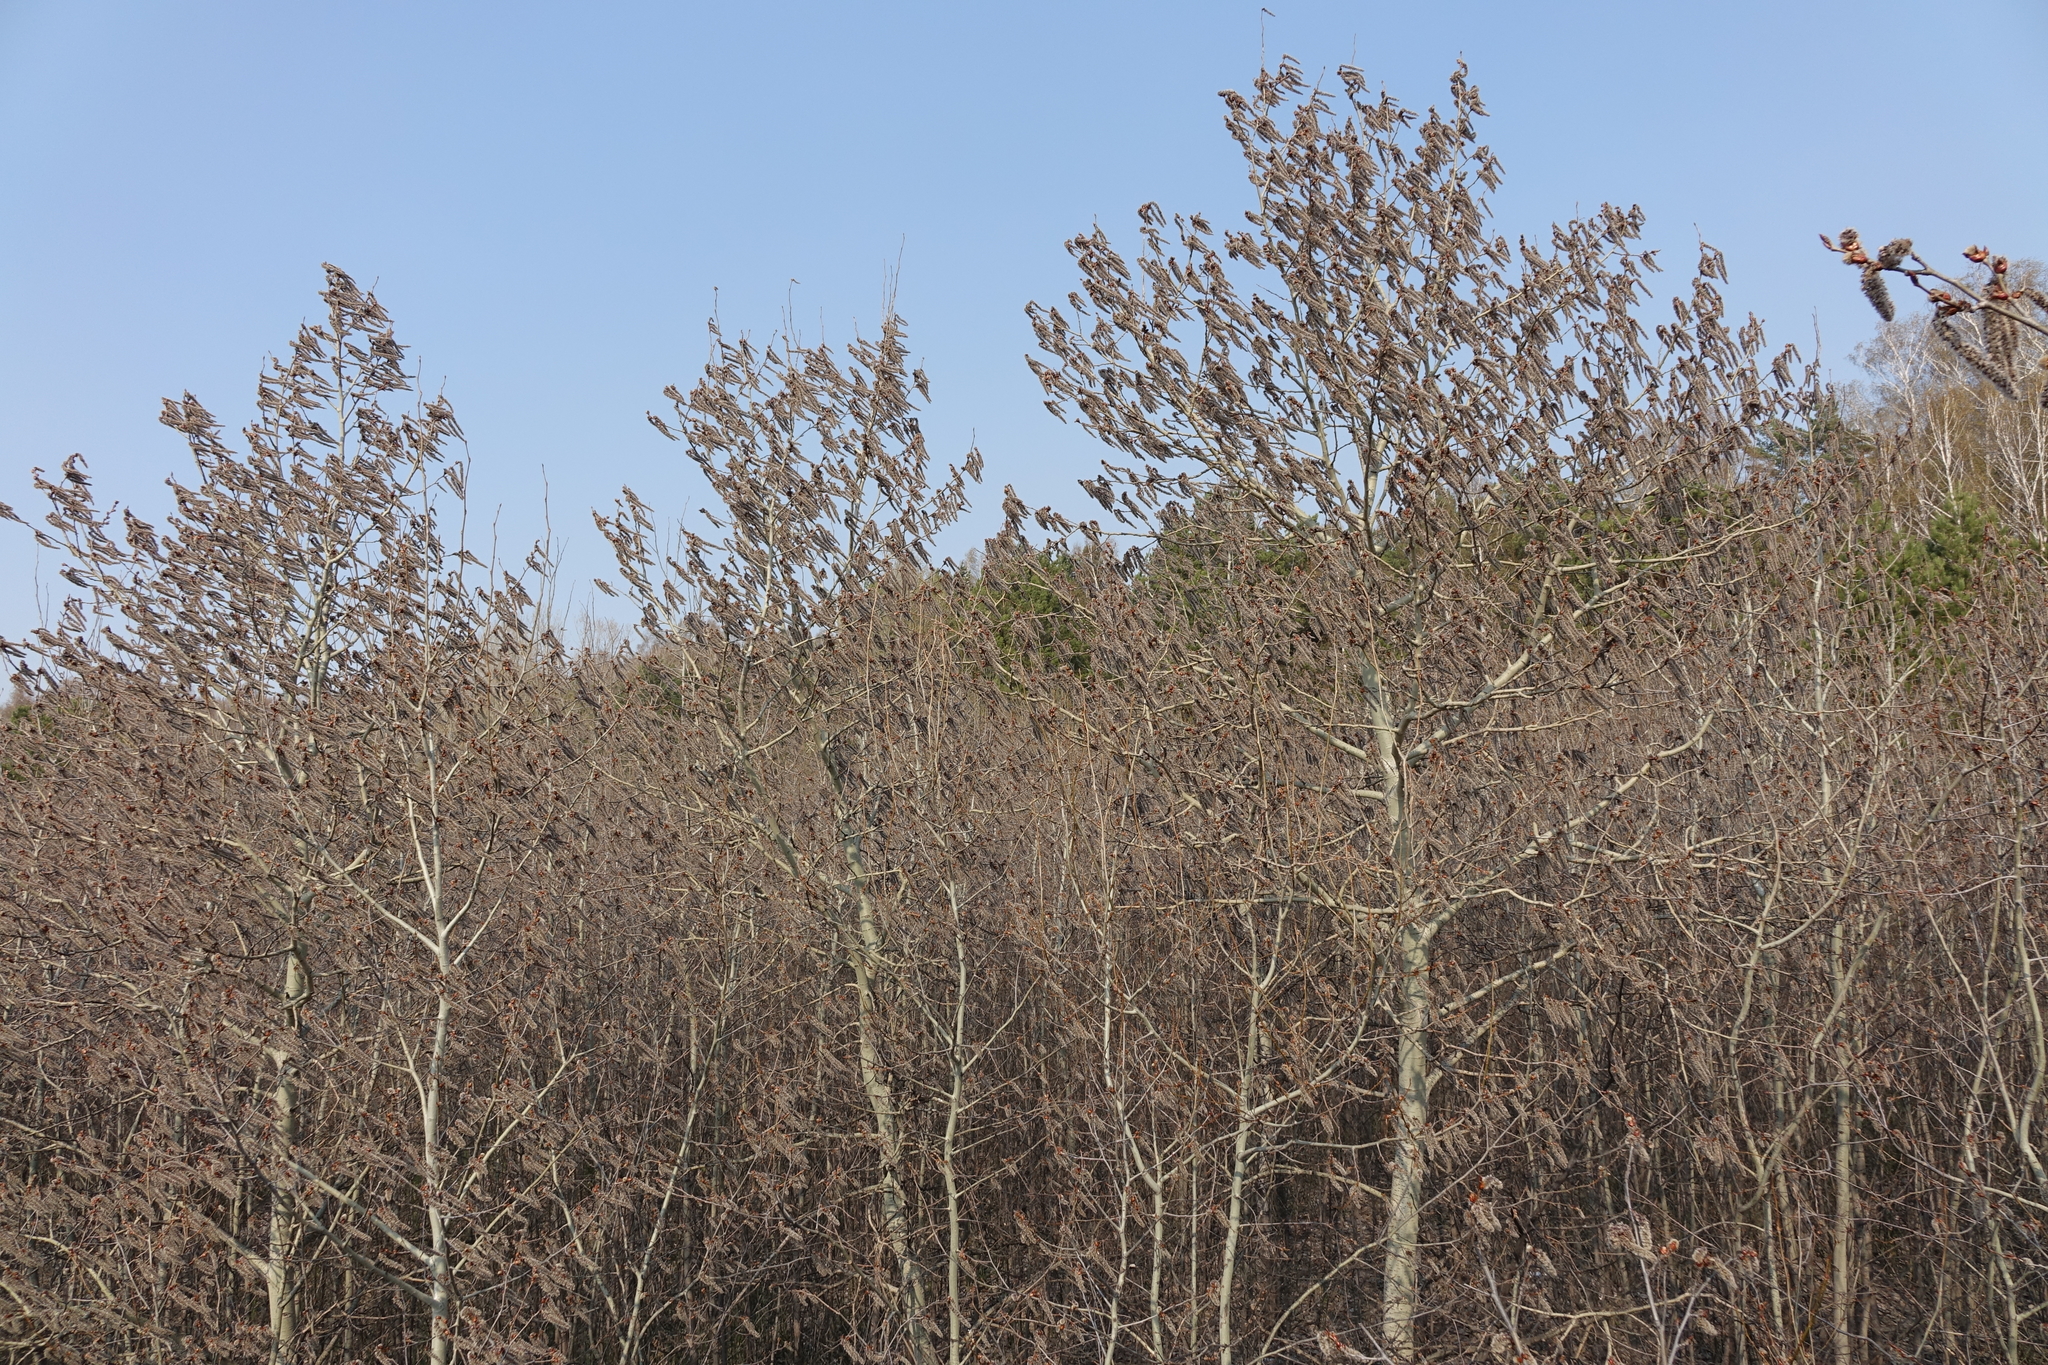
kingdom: Plantae
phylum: Tracheophyta
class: Magnoliopsida
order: Malpighiales
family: Salicaceae
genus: Populus
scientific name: Populus tremula
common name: European aspen
